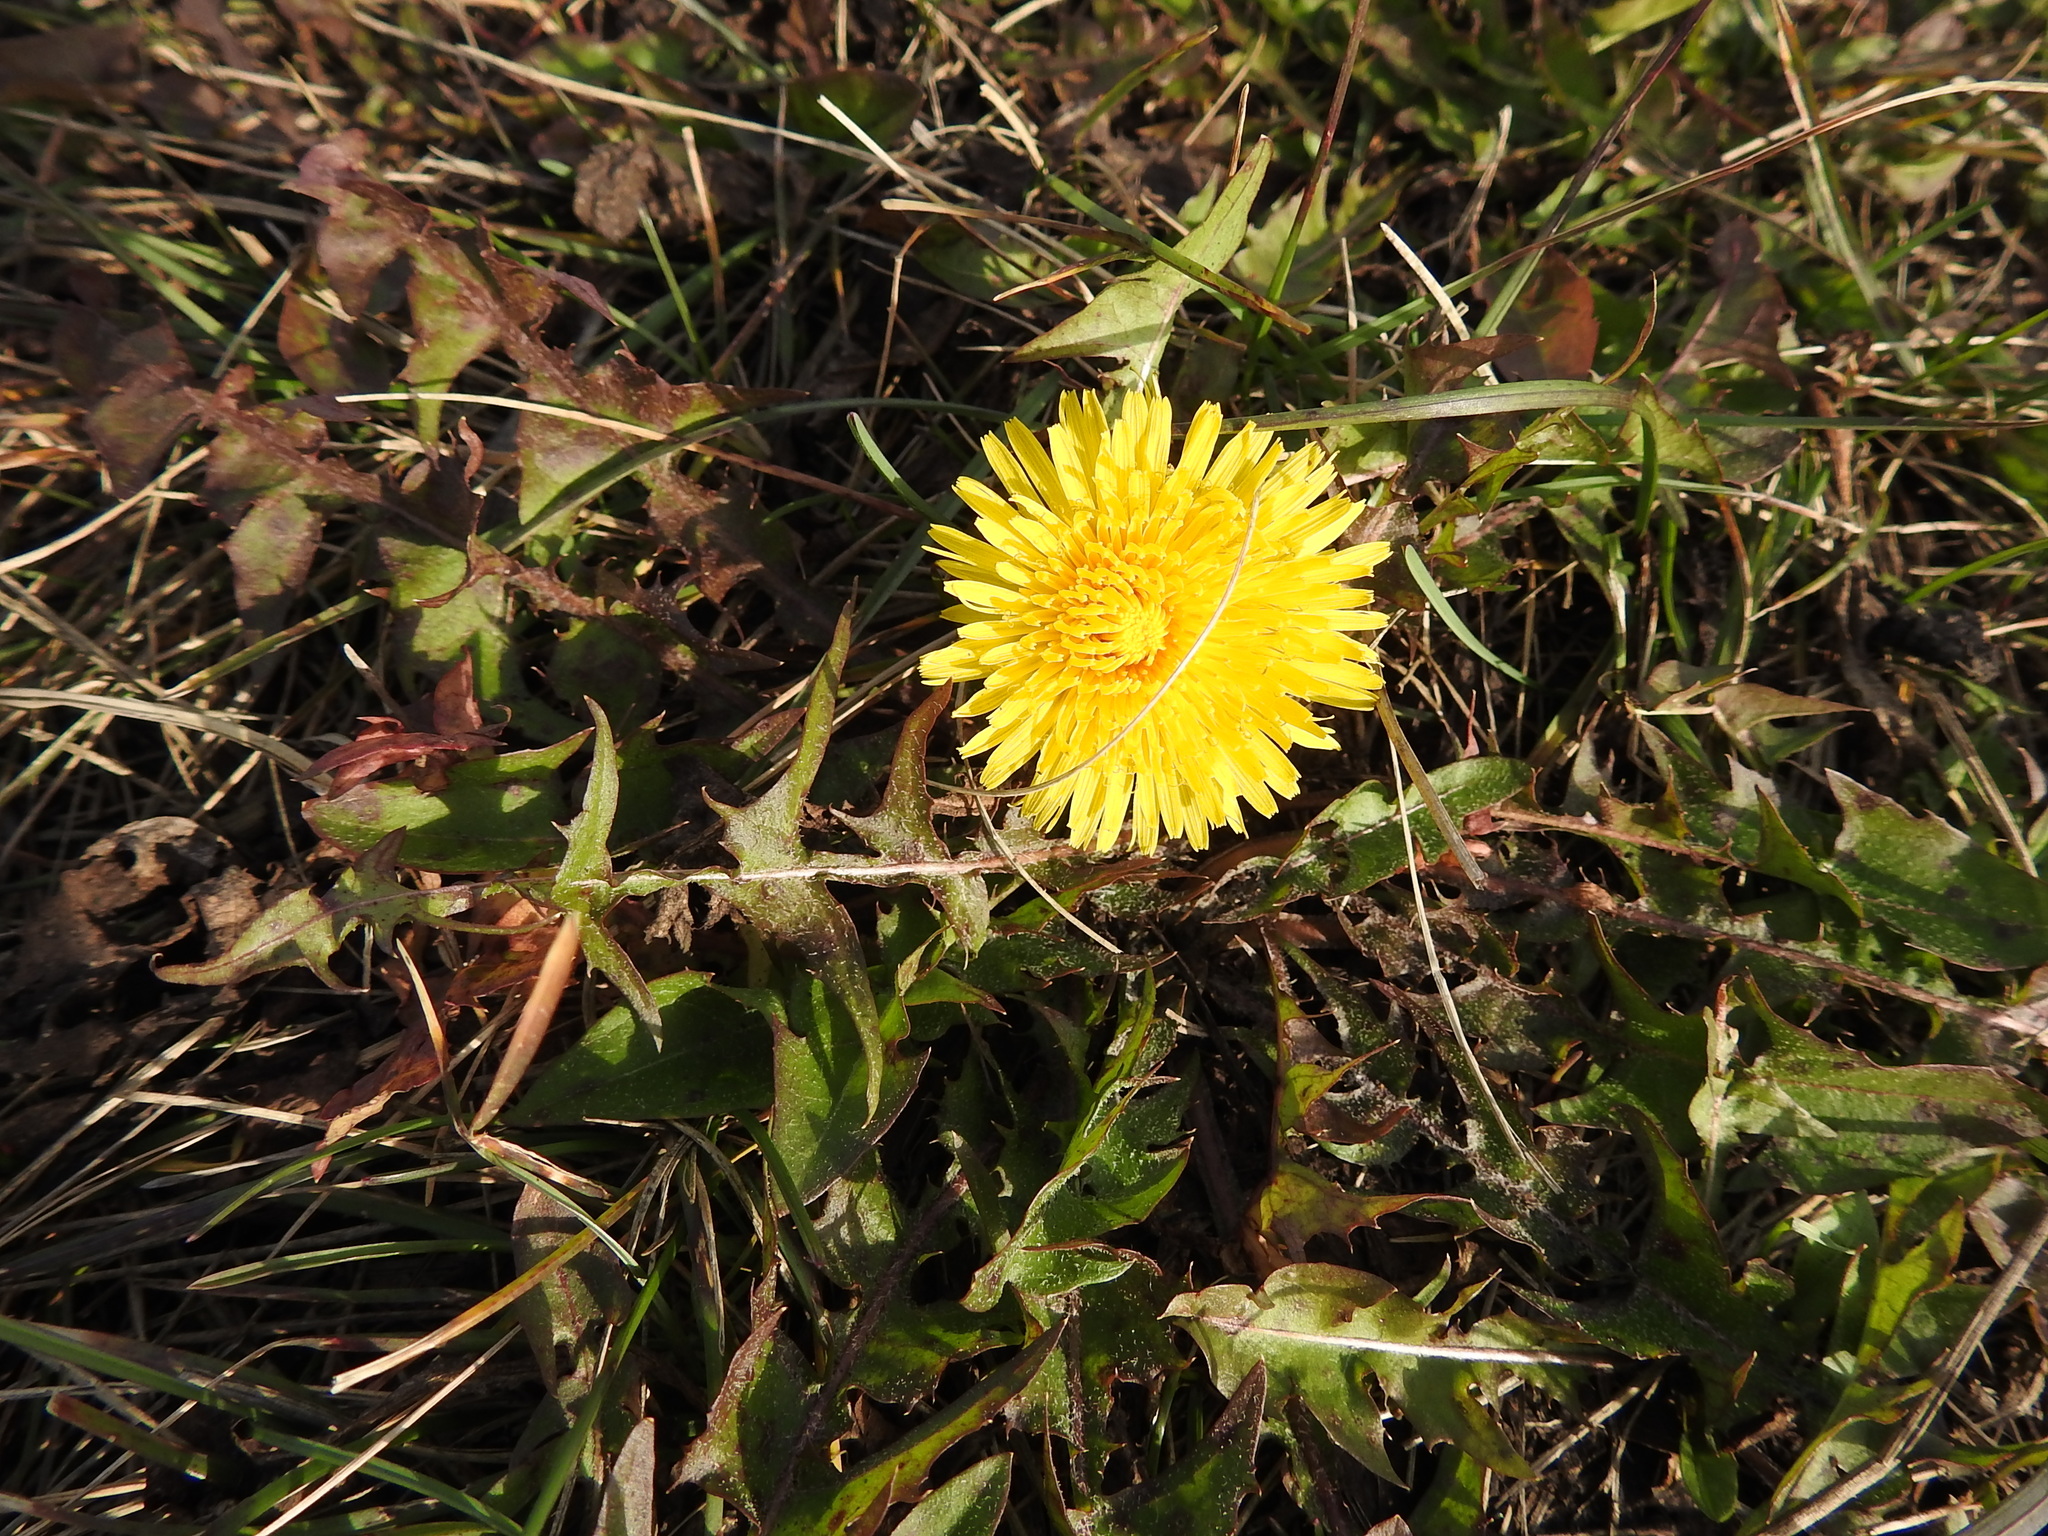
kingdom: Plantae
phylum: Tracheophyta
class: Magnoliopsida
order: Asterales
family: Asteraceae
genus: Taraxacum
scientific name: Taraxacum officinale
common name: Common dandelion
